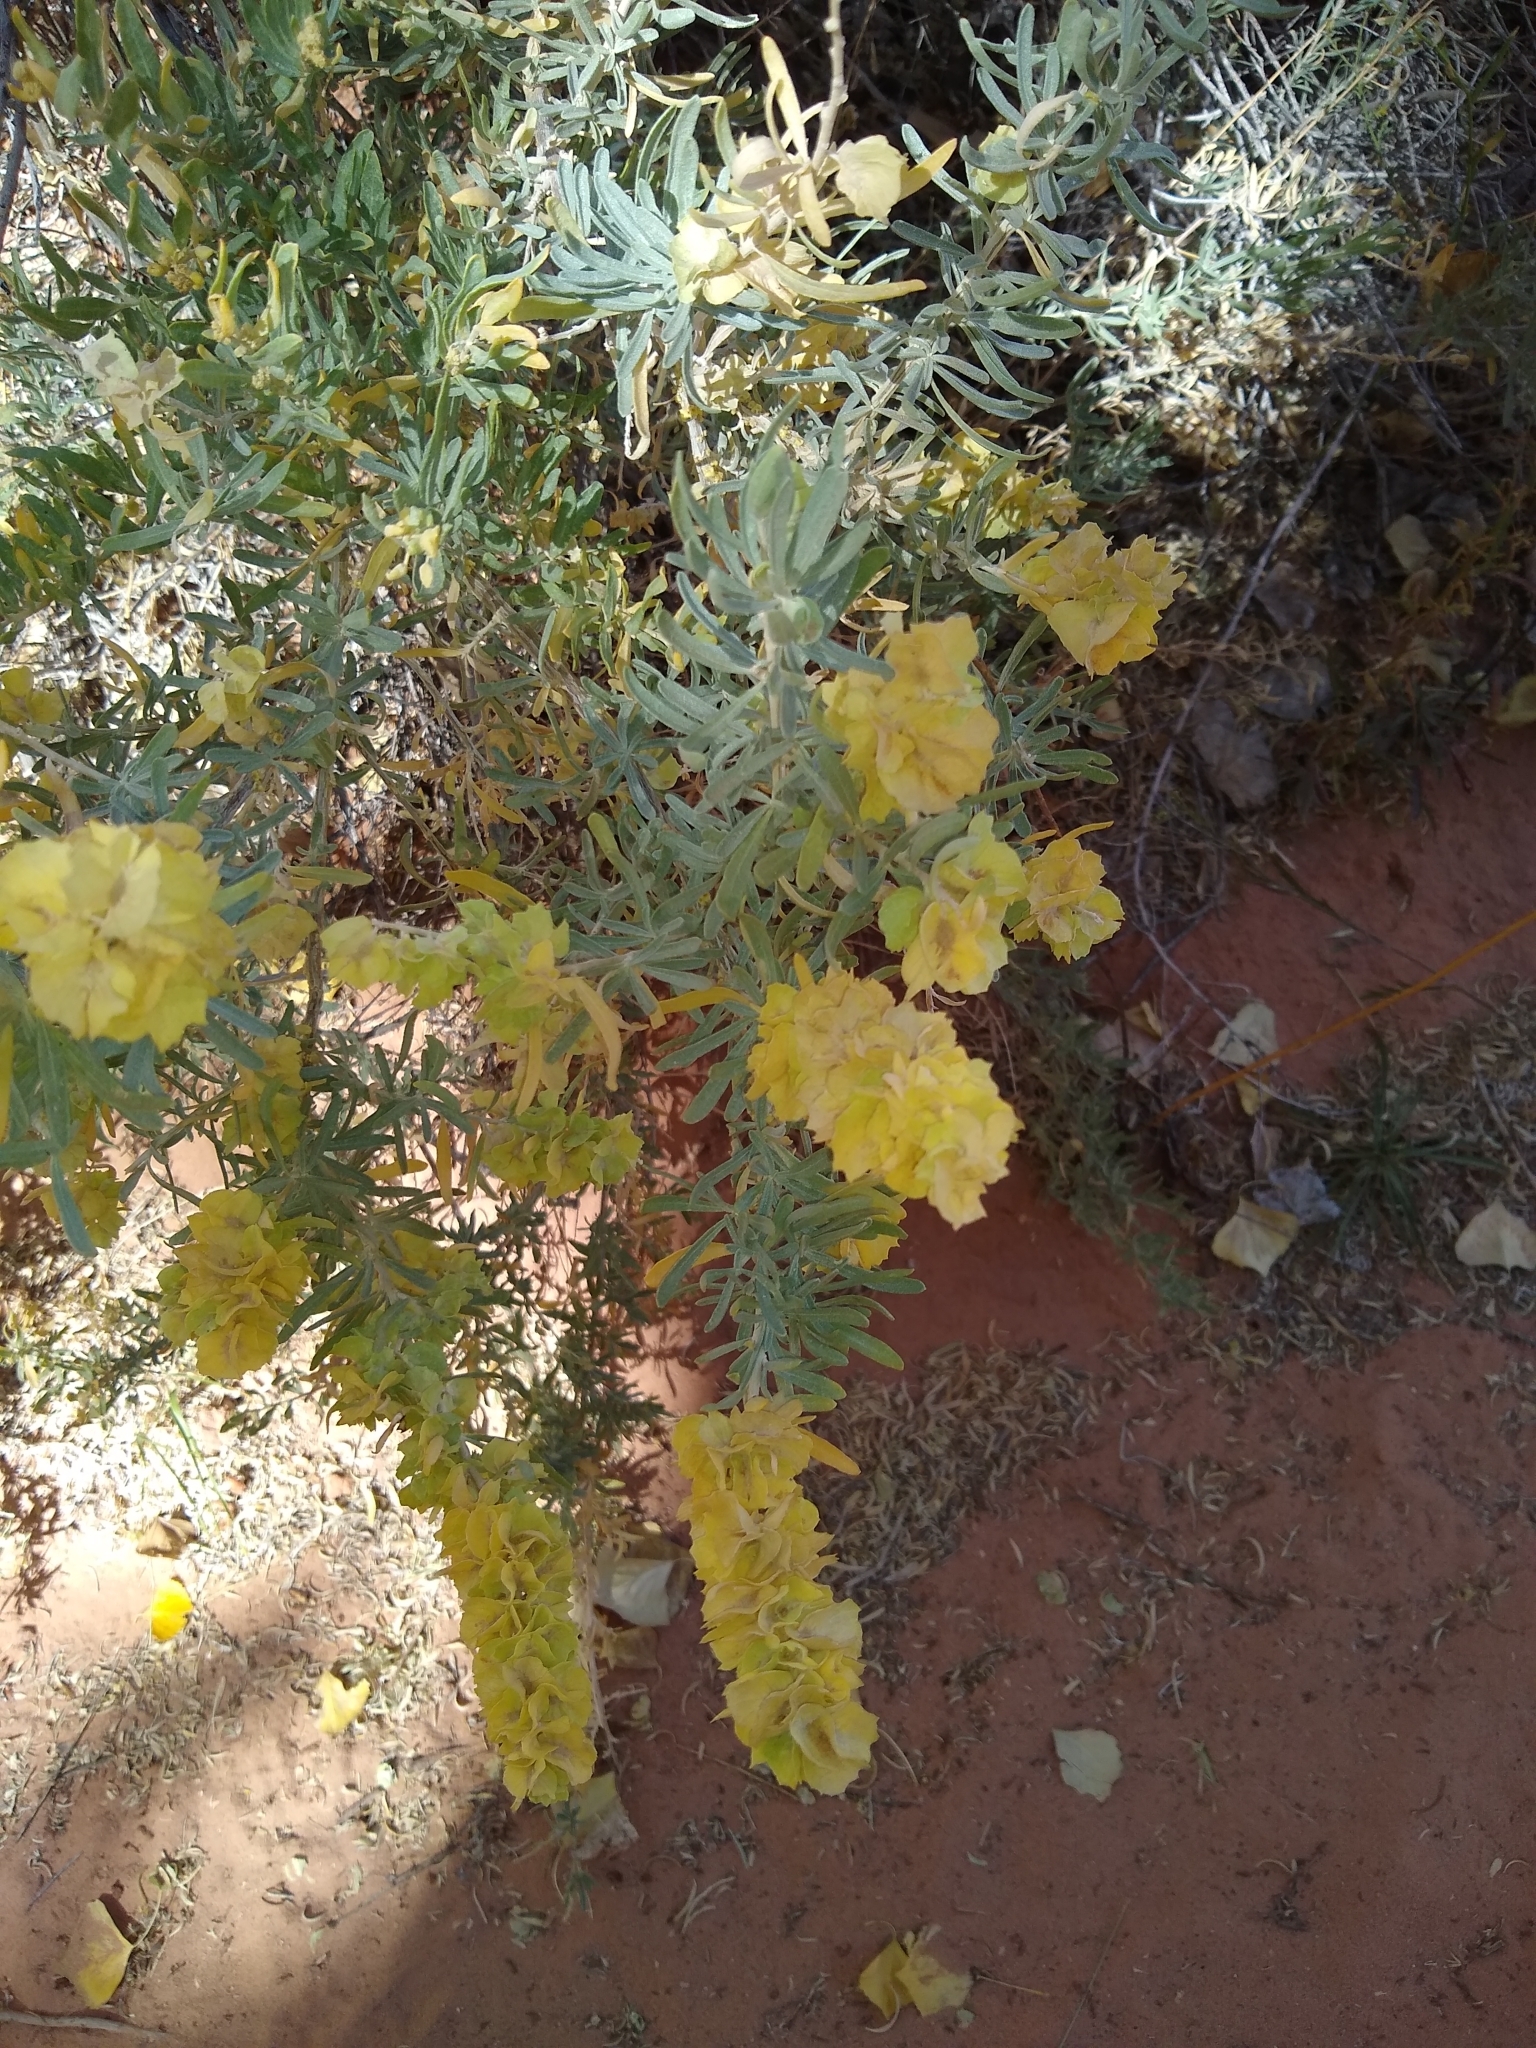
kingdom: Plantae
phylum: Tracheophyta
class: Magnoliopsida
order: Caryophyllales
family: Amaranthaceae
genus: Atriplex
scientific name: Atriplex canescens
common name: Four-wing saltbush
